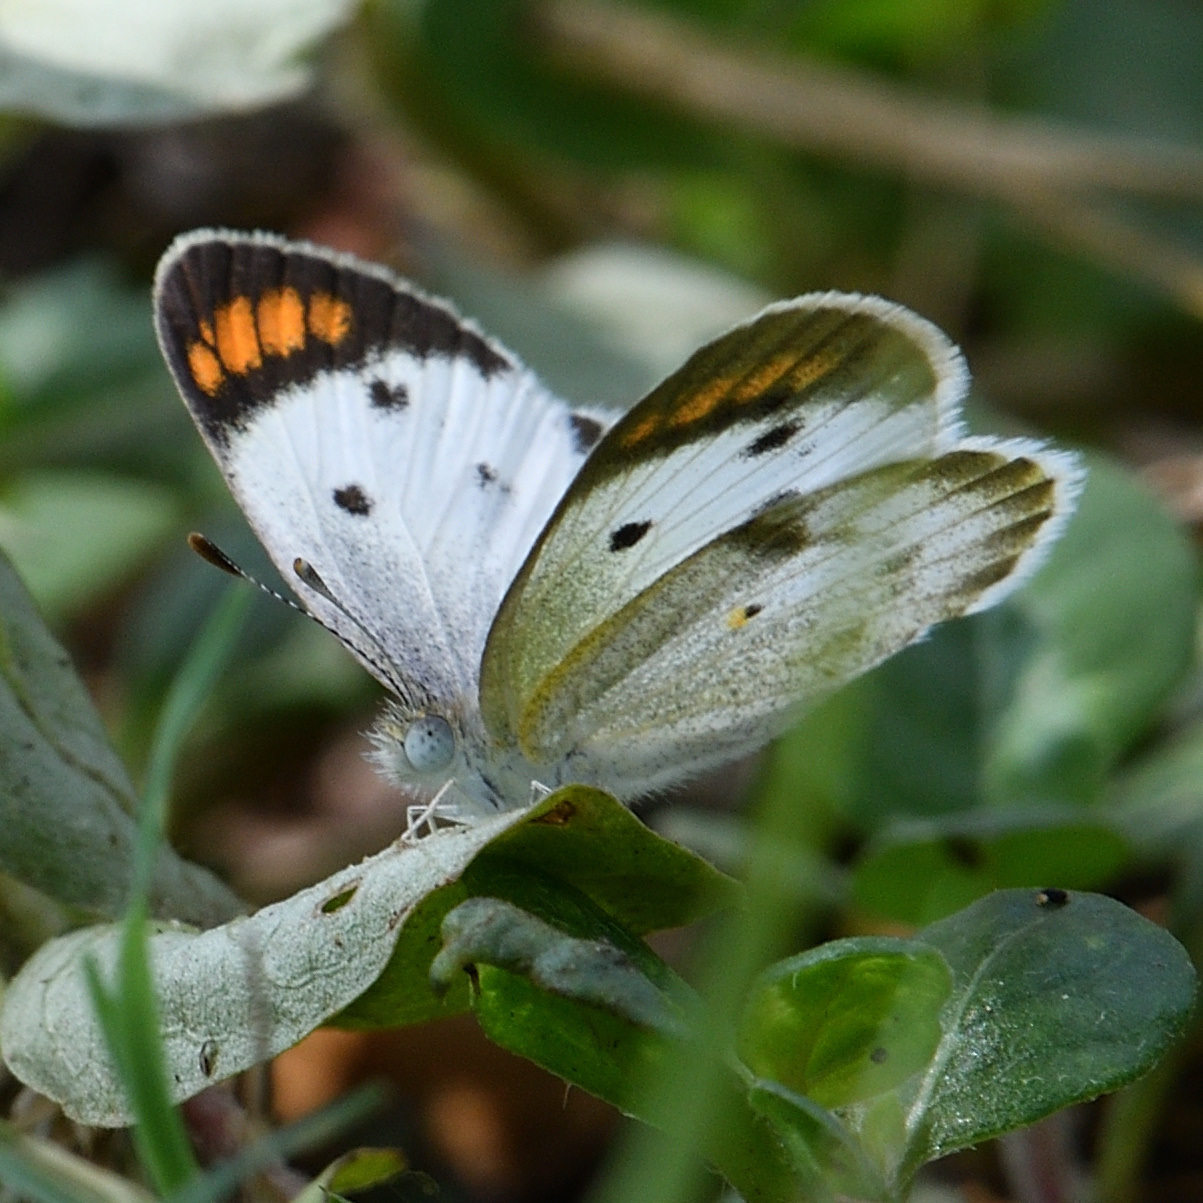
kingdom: Animalia
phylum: Arthropoda
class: Insecta
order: Lepidoptera
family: Pieridae
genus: Colotis
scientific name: Colotis etrida
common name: Little orange tip
